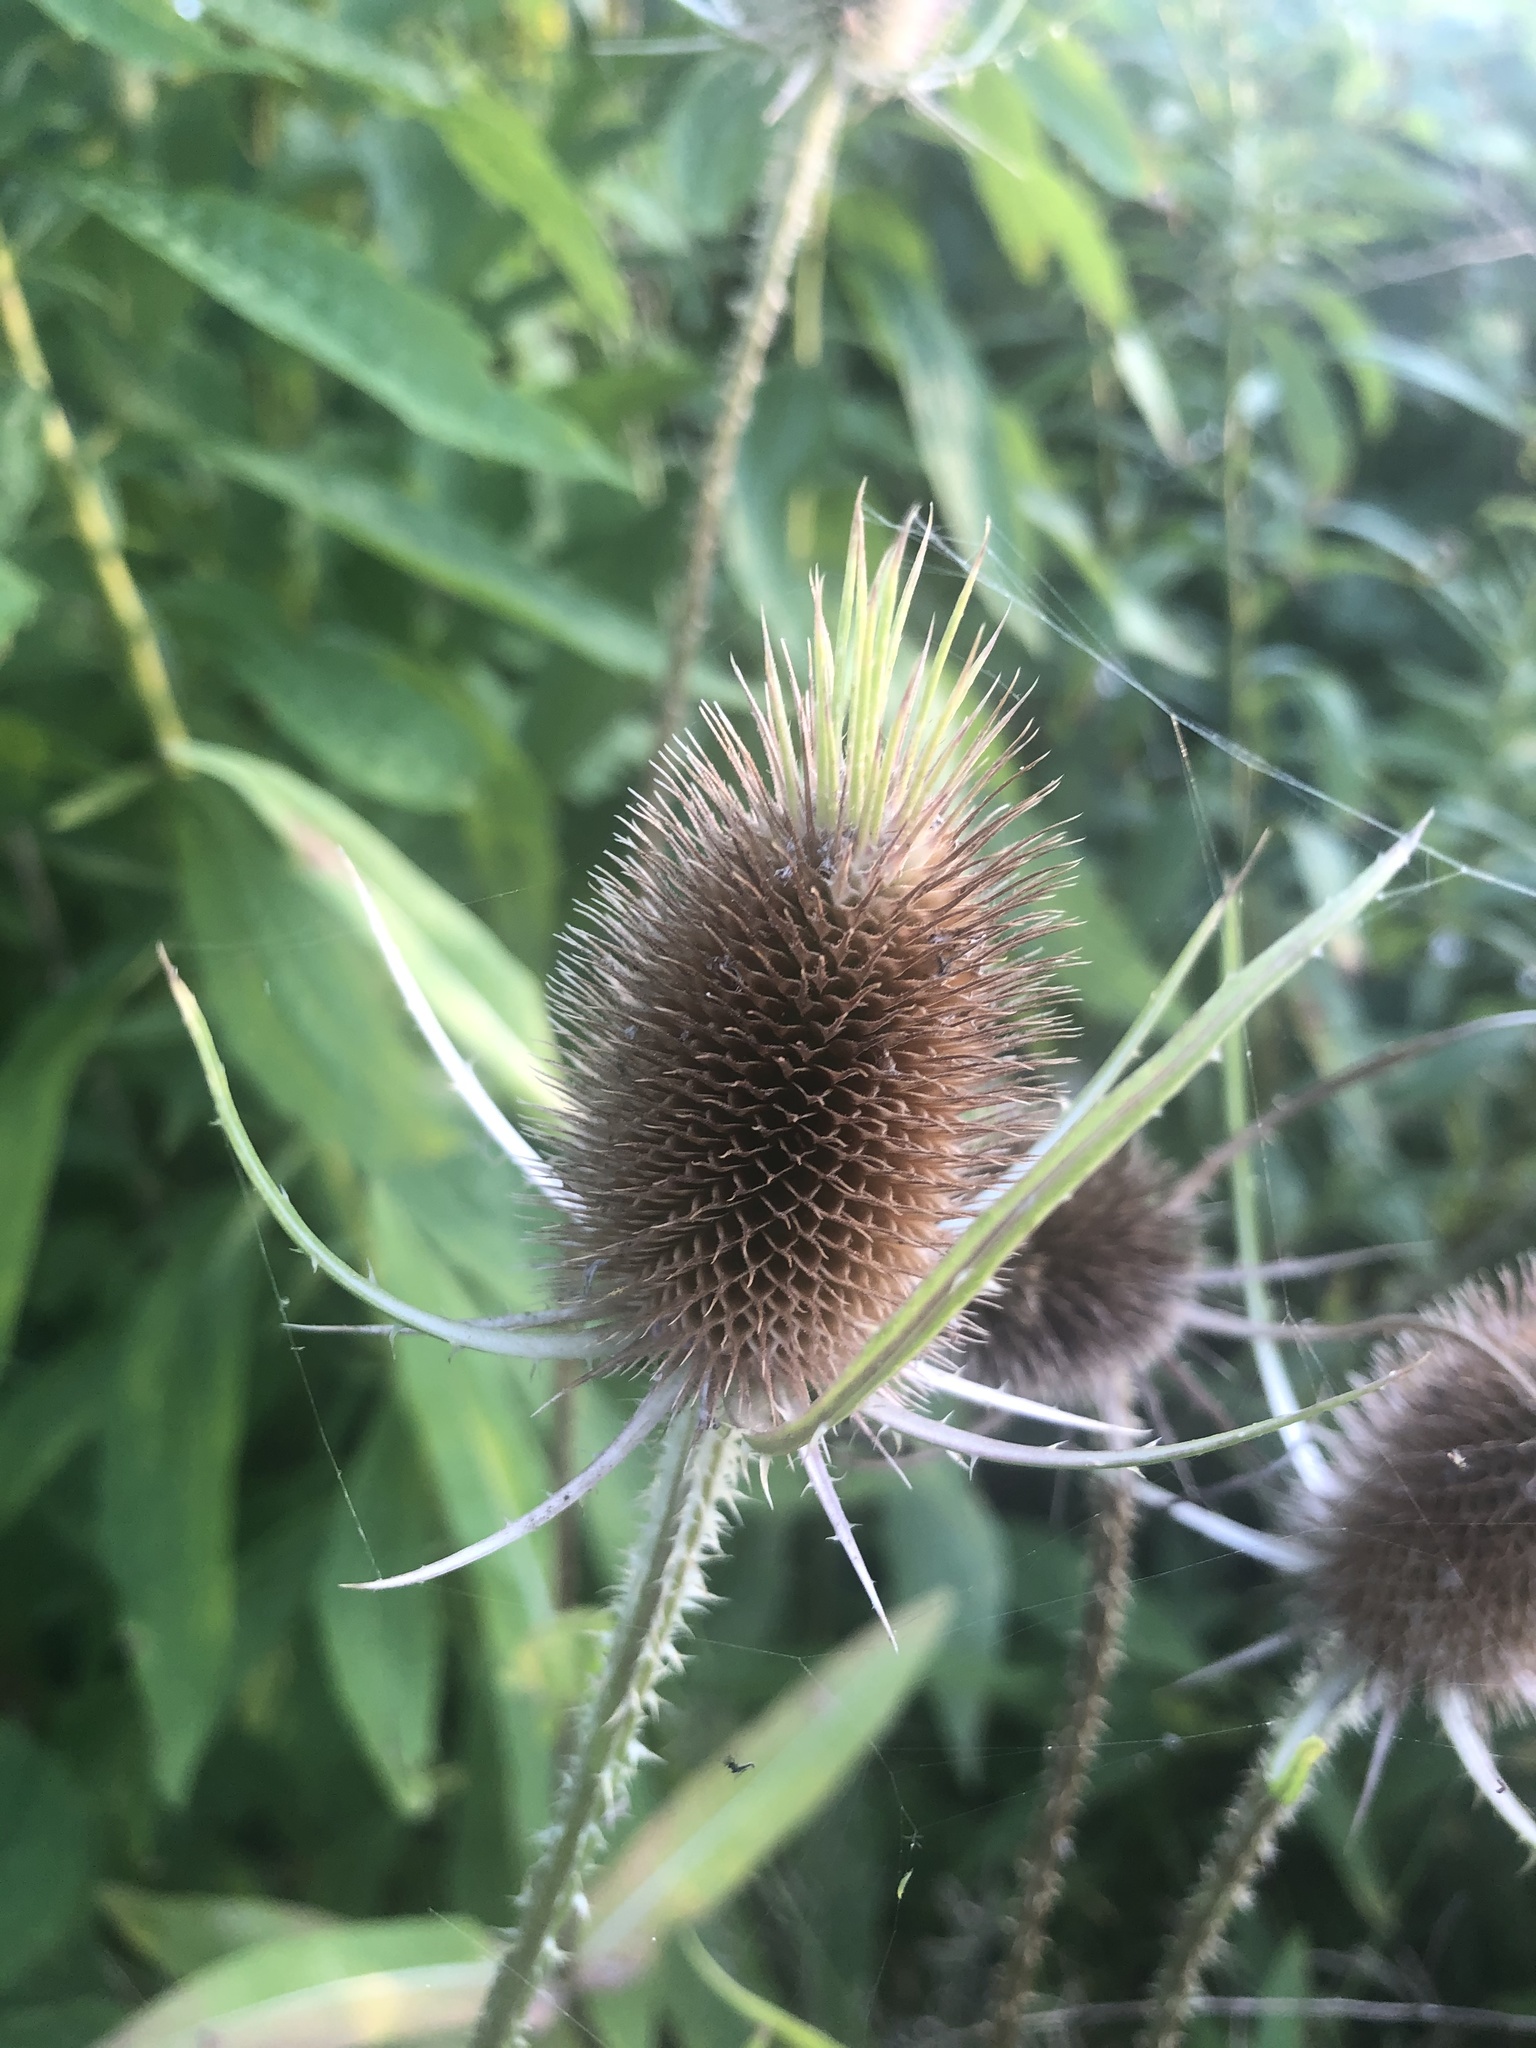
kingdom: Plantae
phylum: Tracheophyta
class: Magnoliopsida
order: Dipsacales
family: Caprifoliaceae
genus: Dipsacus
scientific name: Dipsacus fullonum
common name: Teasel
